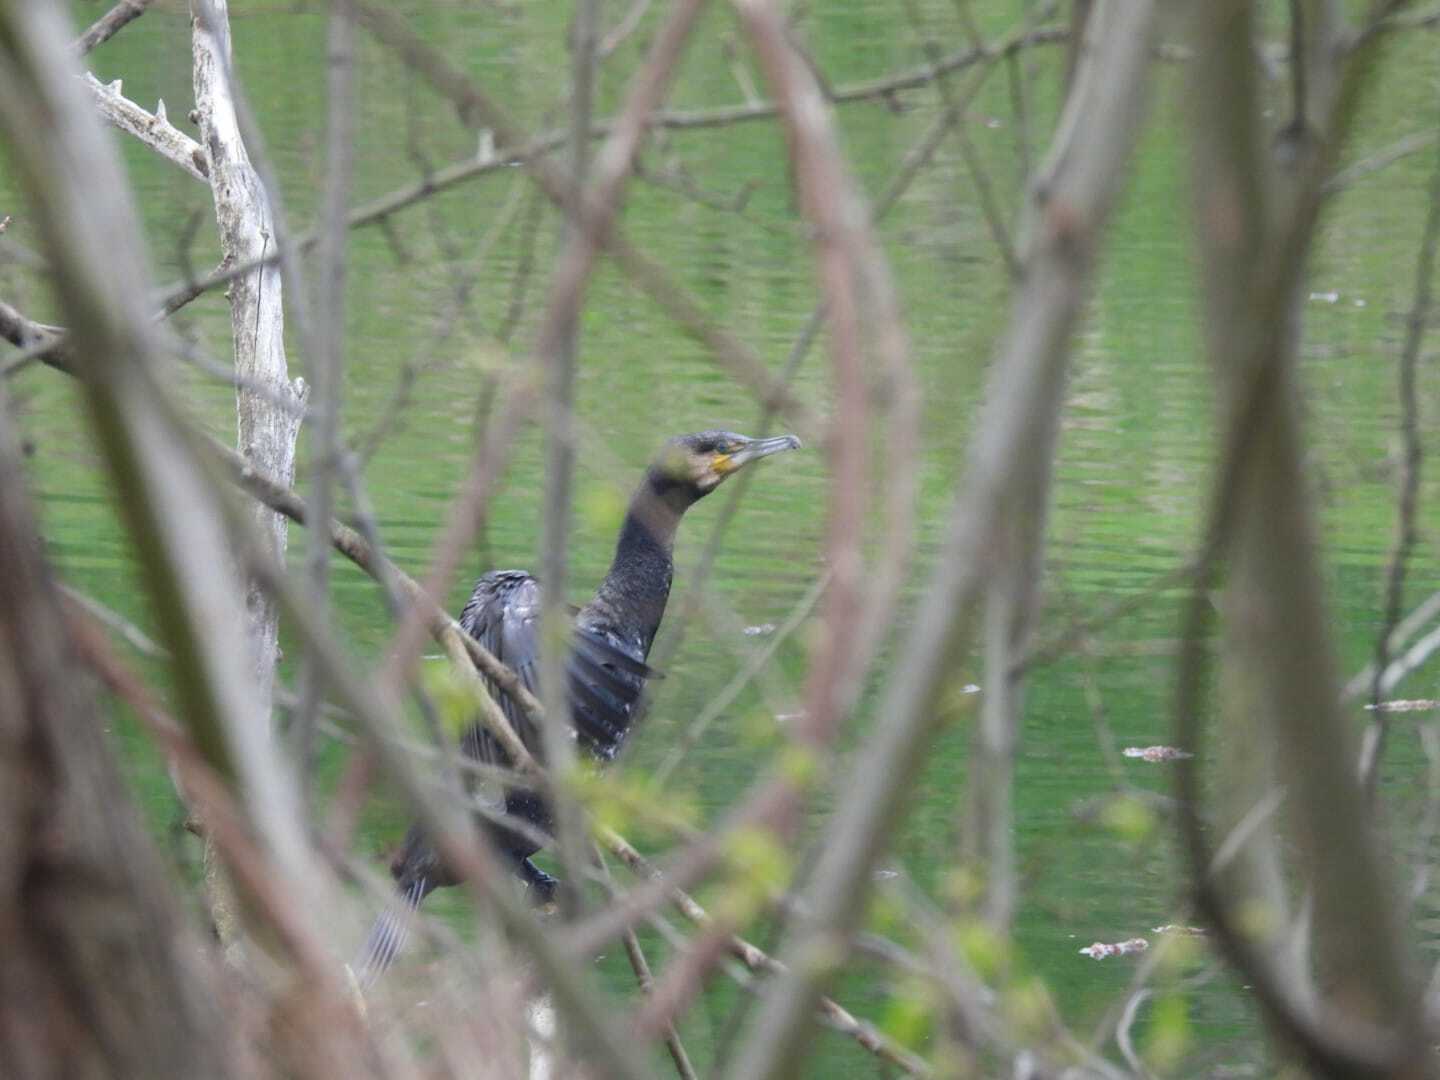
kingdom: Animalia
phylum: Chordata
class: Aves
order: Suliformes
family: Phalacrocoracidae
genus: Phalacrocorax
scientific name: Phalacrocorax carbo
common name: Great cormorant
